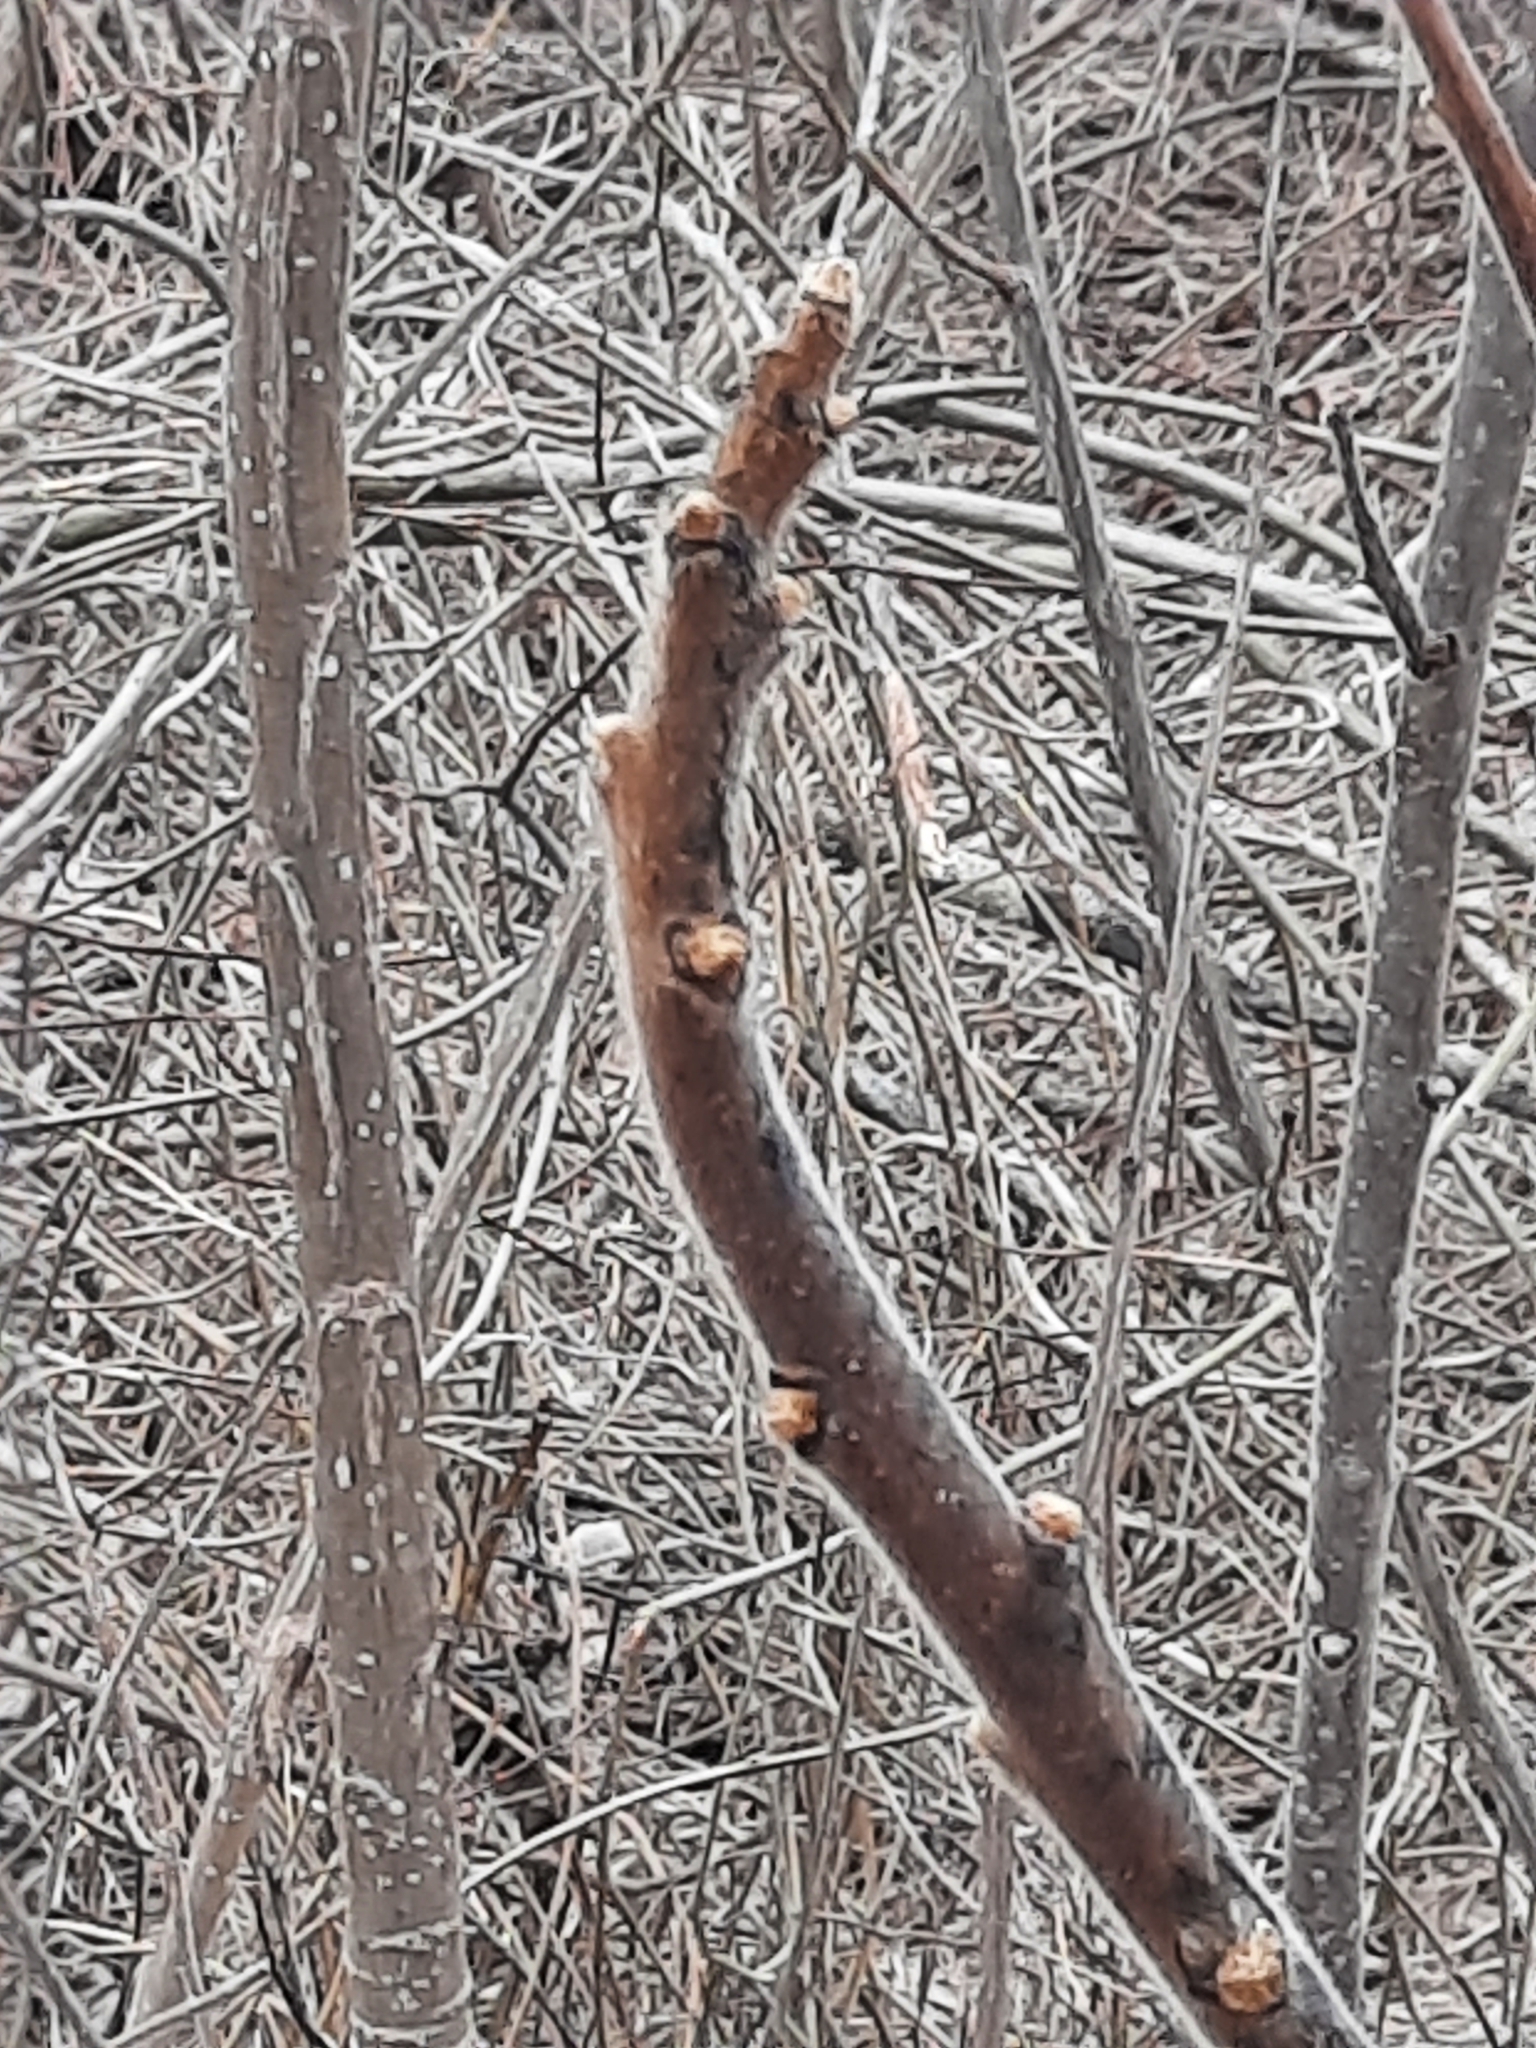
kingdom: Plantae
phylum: Tracheophyta
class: Magnoliopsida
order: Sapindales
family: Anacardiaceae
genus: Rhus
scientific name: Rhus typhina
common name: Staghorn sumac
